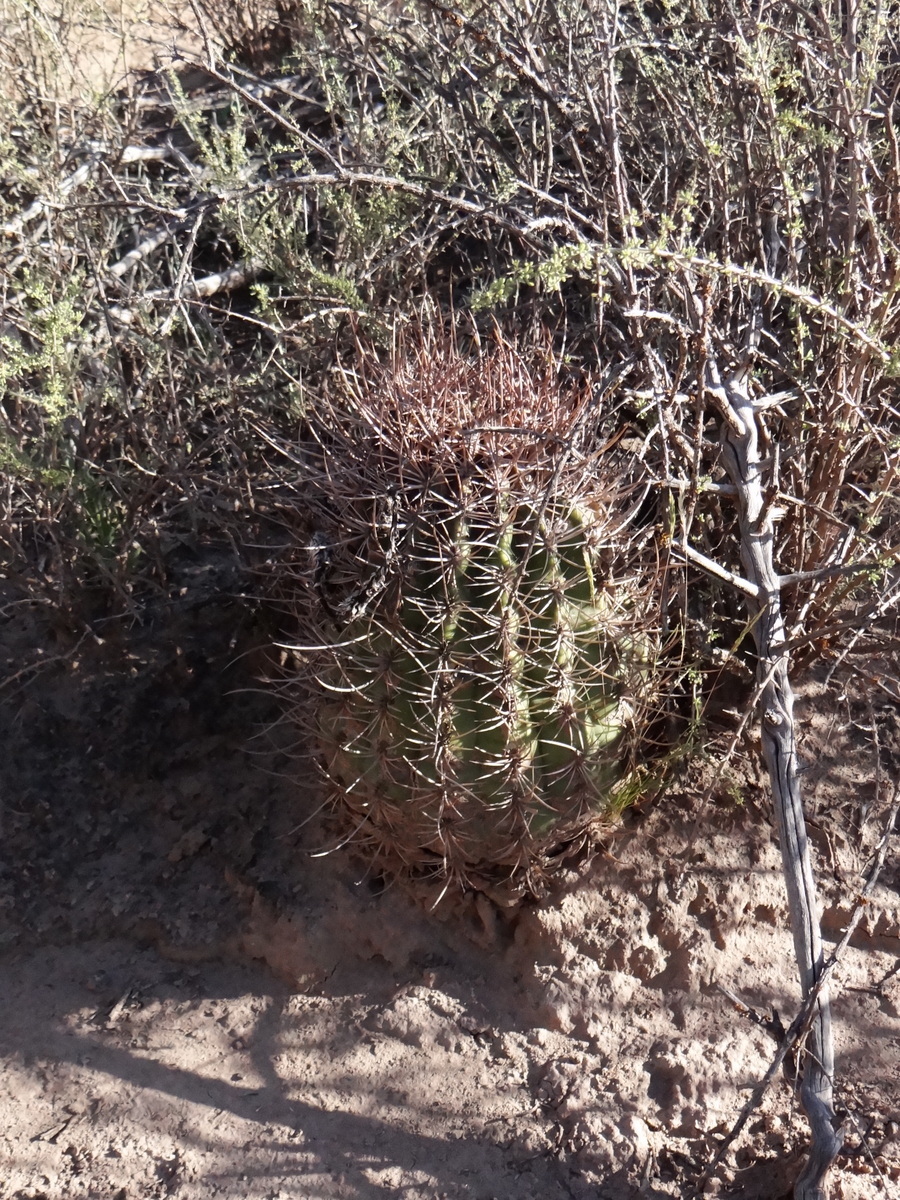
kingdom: Plantae
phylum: Tracheophyta
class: Magnoliopsida
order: Caryophyllales
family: Cactaceae
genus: Acanthocalycium
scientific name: Acanthocalycium leucanthum
